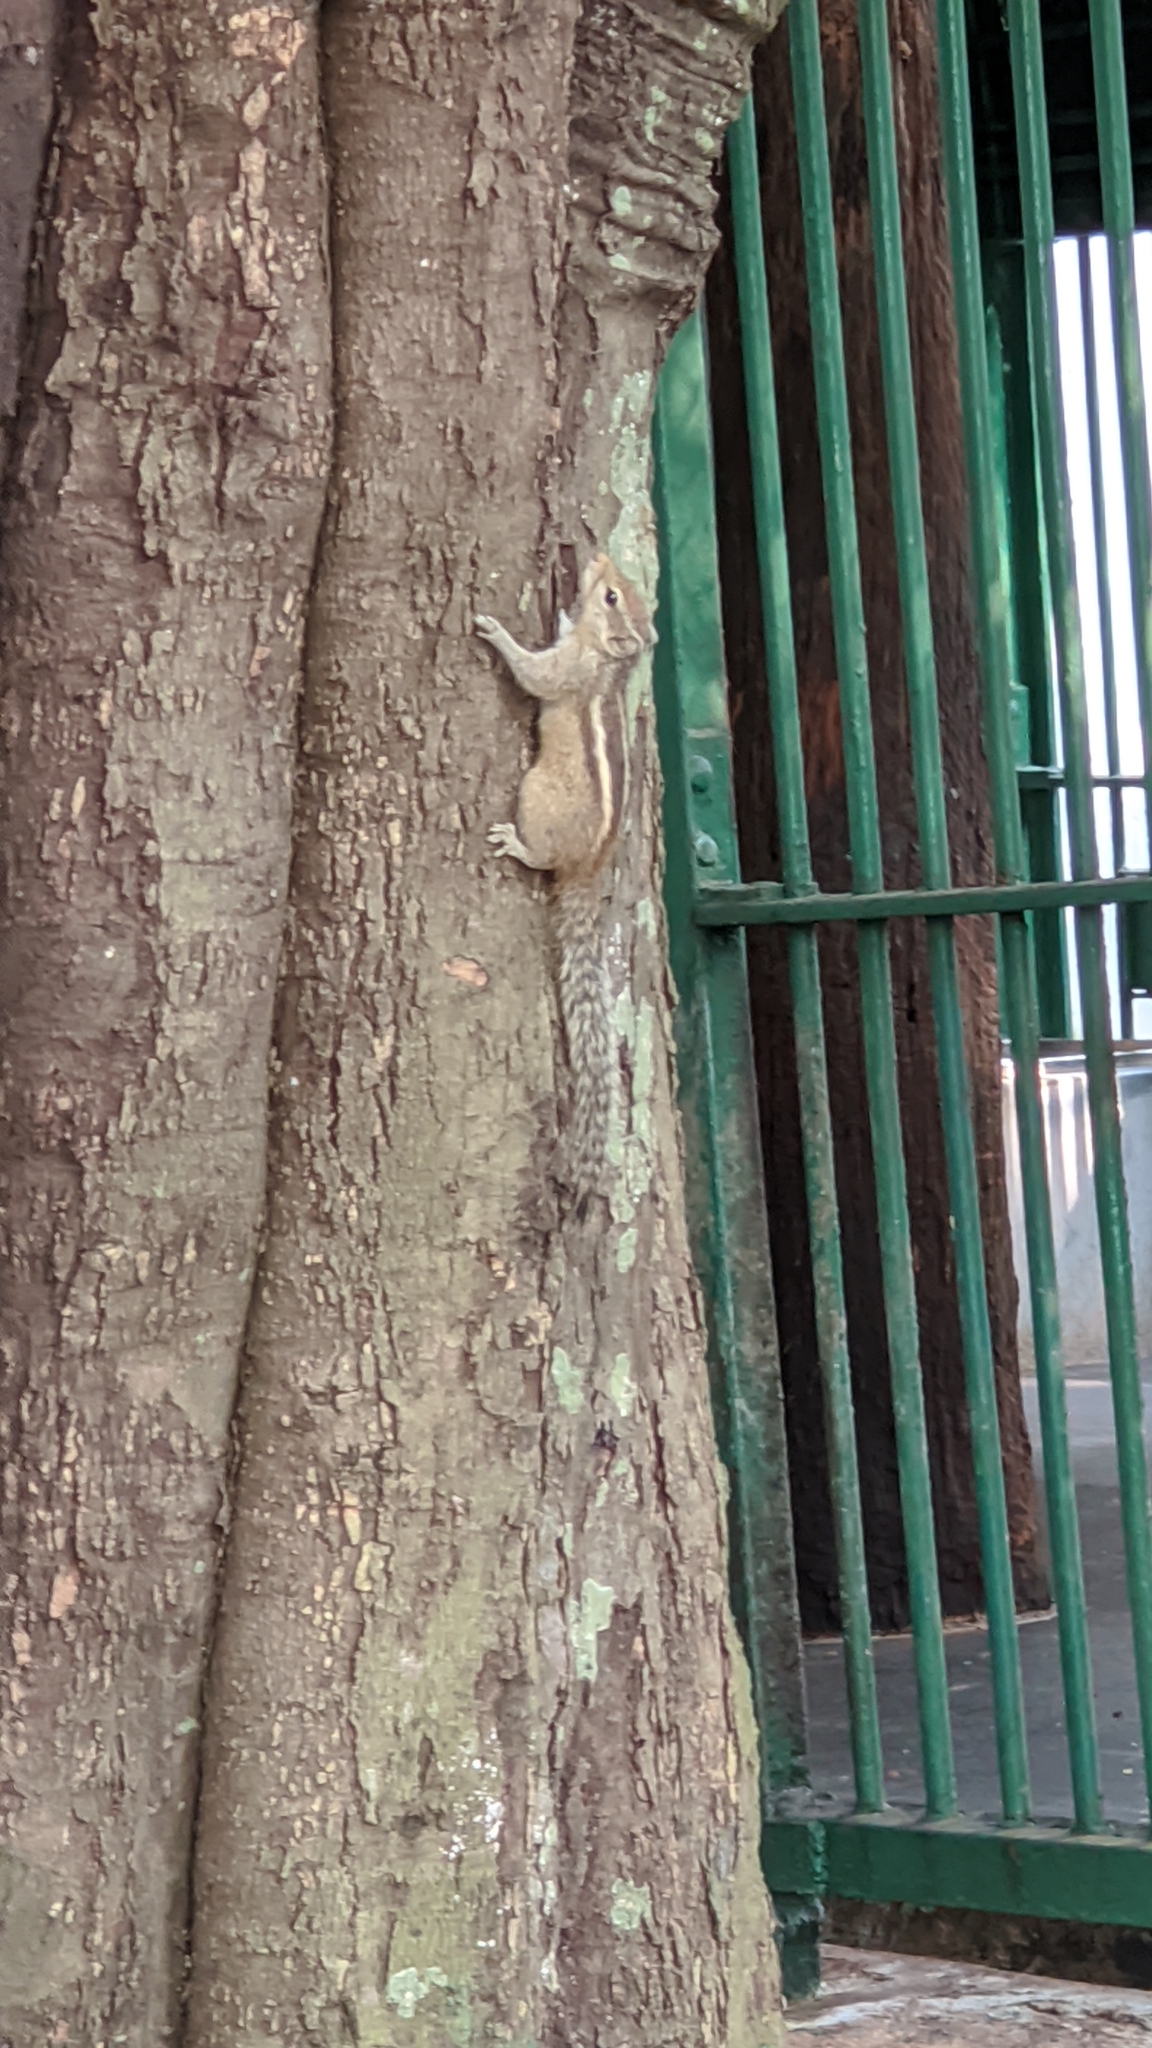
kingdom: Animalia
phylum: Chordata
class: Mammalia
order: Rodentia
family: Sciuridae
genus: Funambulus
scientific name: Funambulus palmarum
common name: Indian palm squirrel
